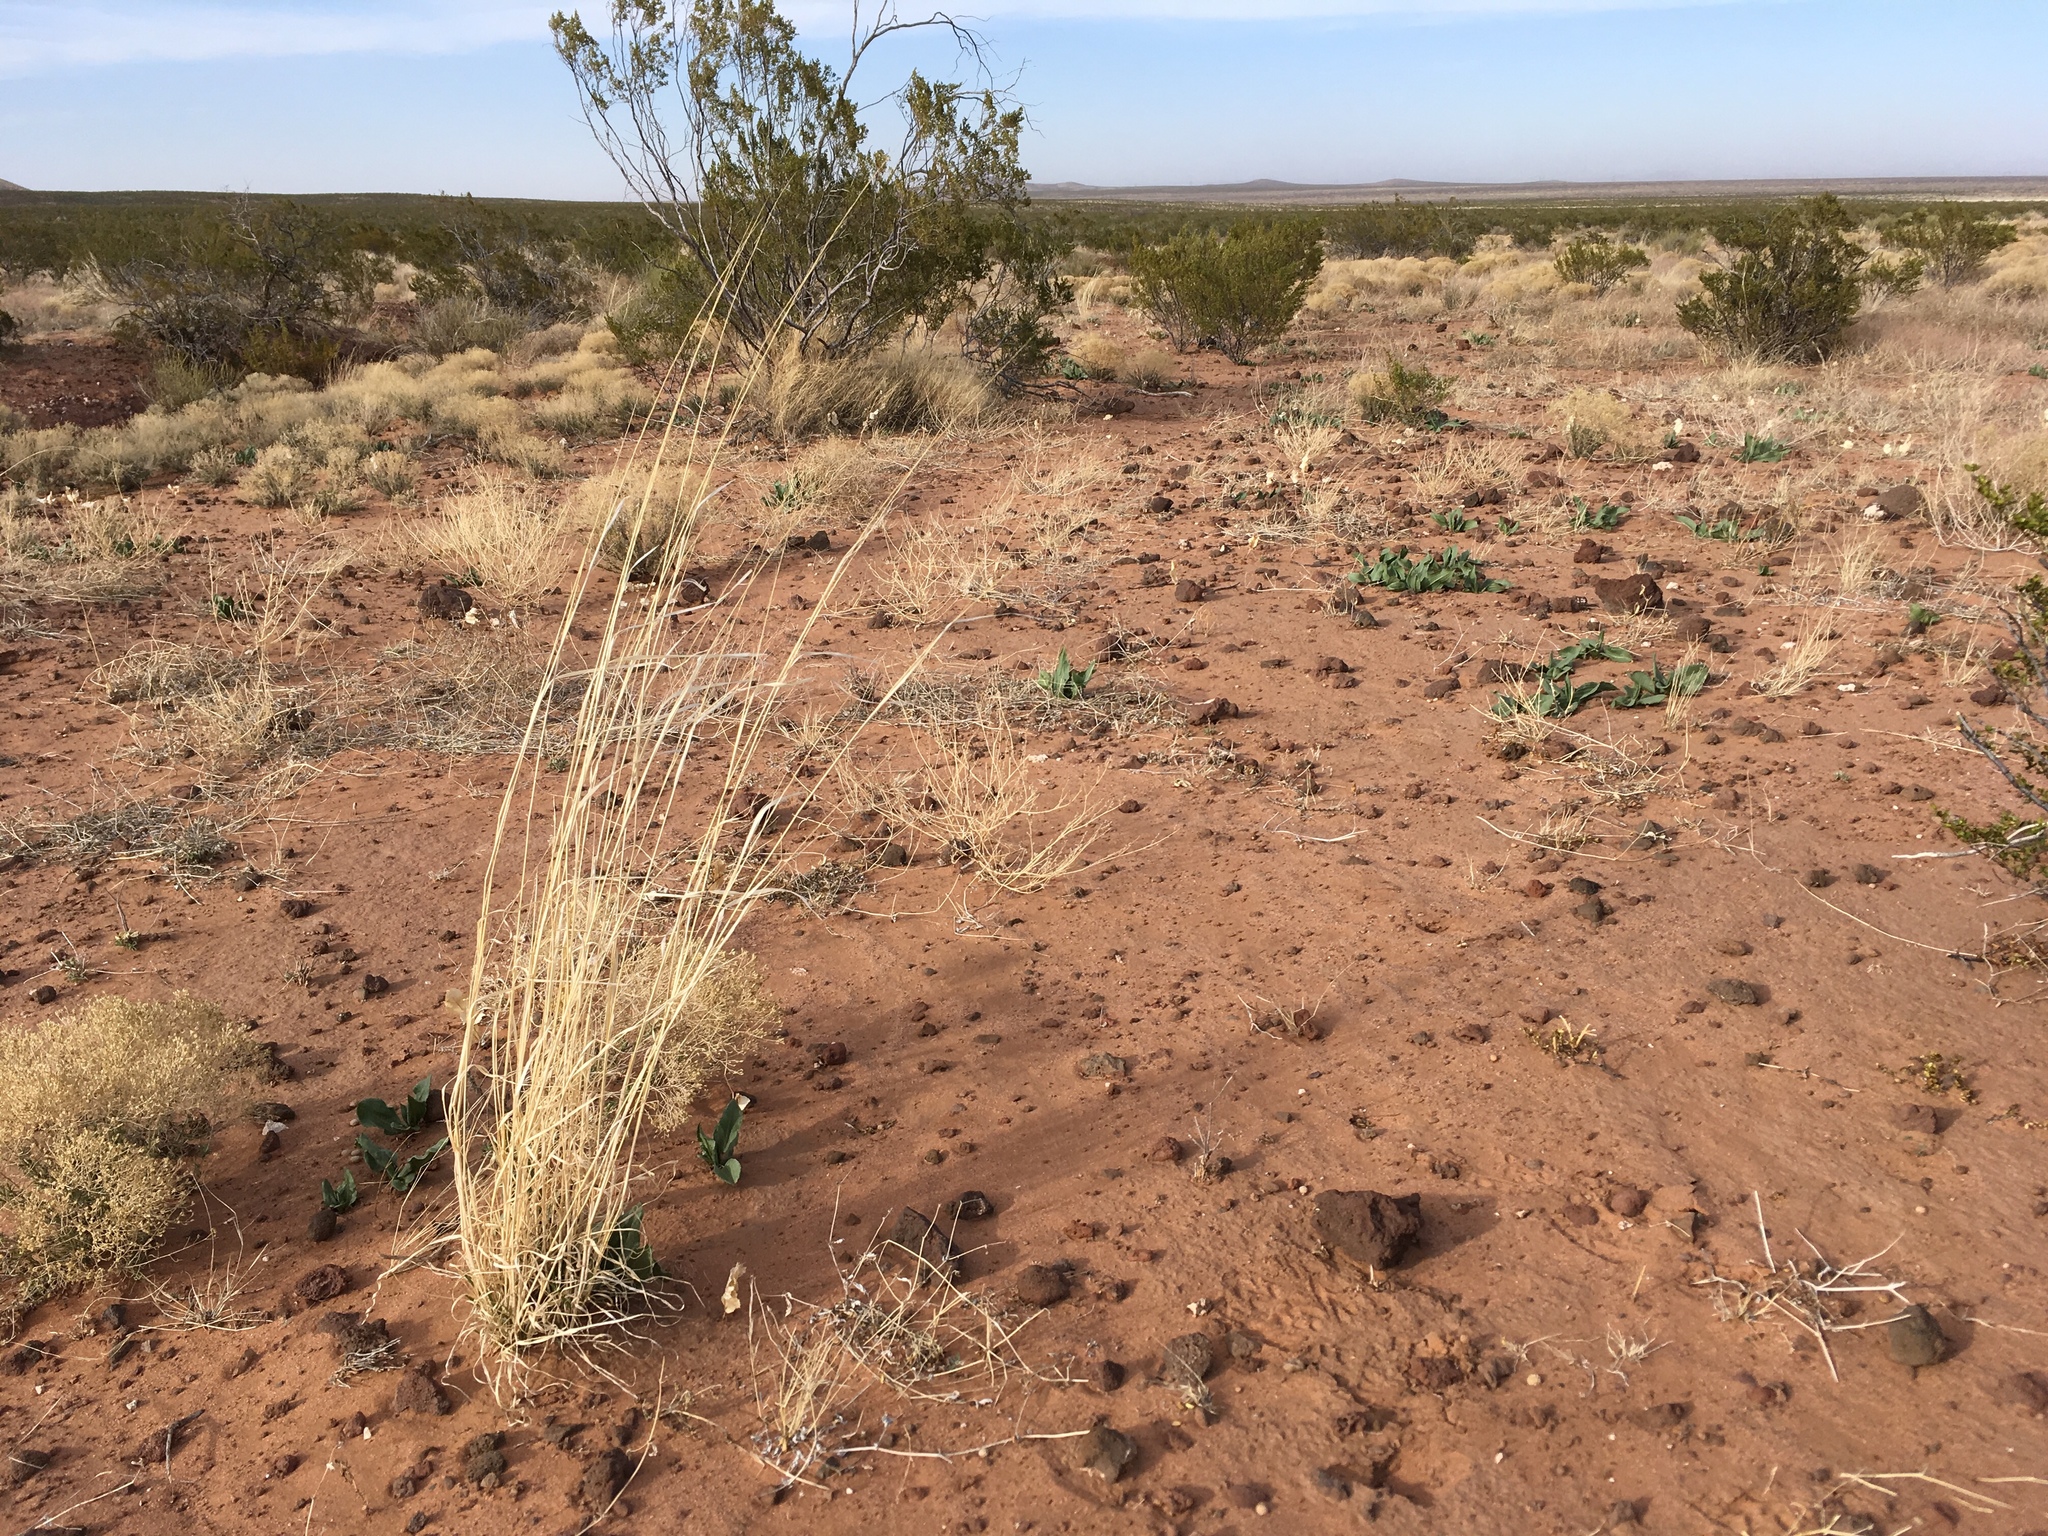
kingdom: Plantae
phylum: Tracheophyta
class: Liliopsida
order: Poales
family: Poaceae
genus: Sporobolus
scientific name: Sporobolus contractus
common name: Spike dropseed
